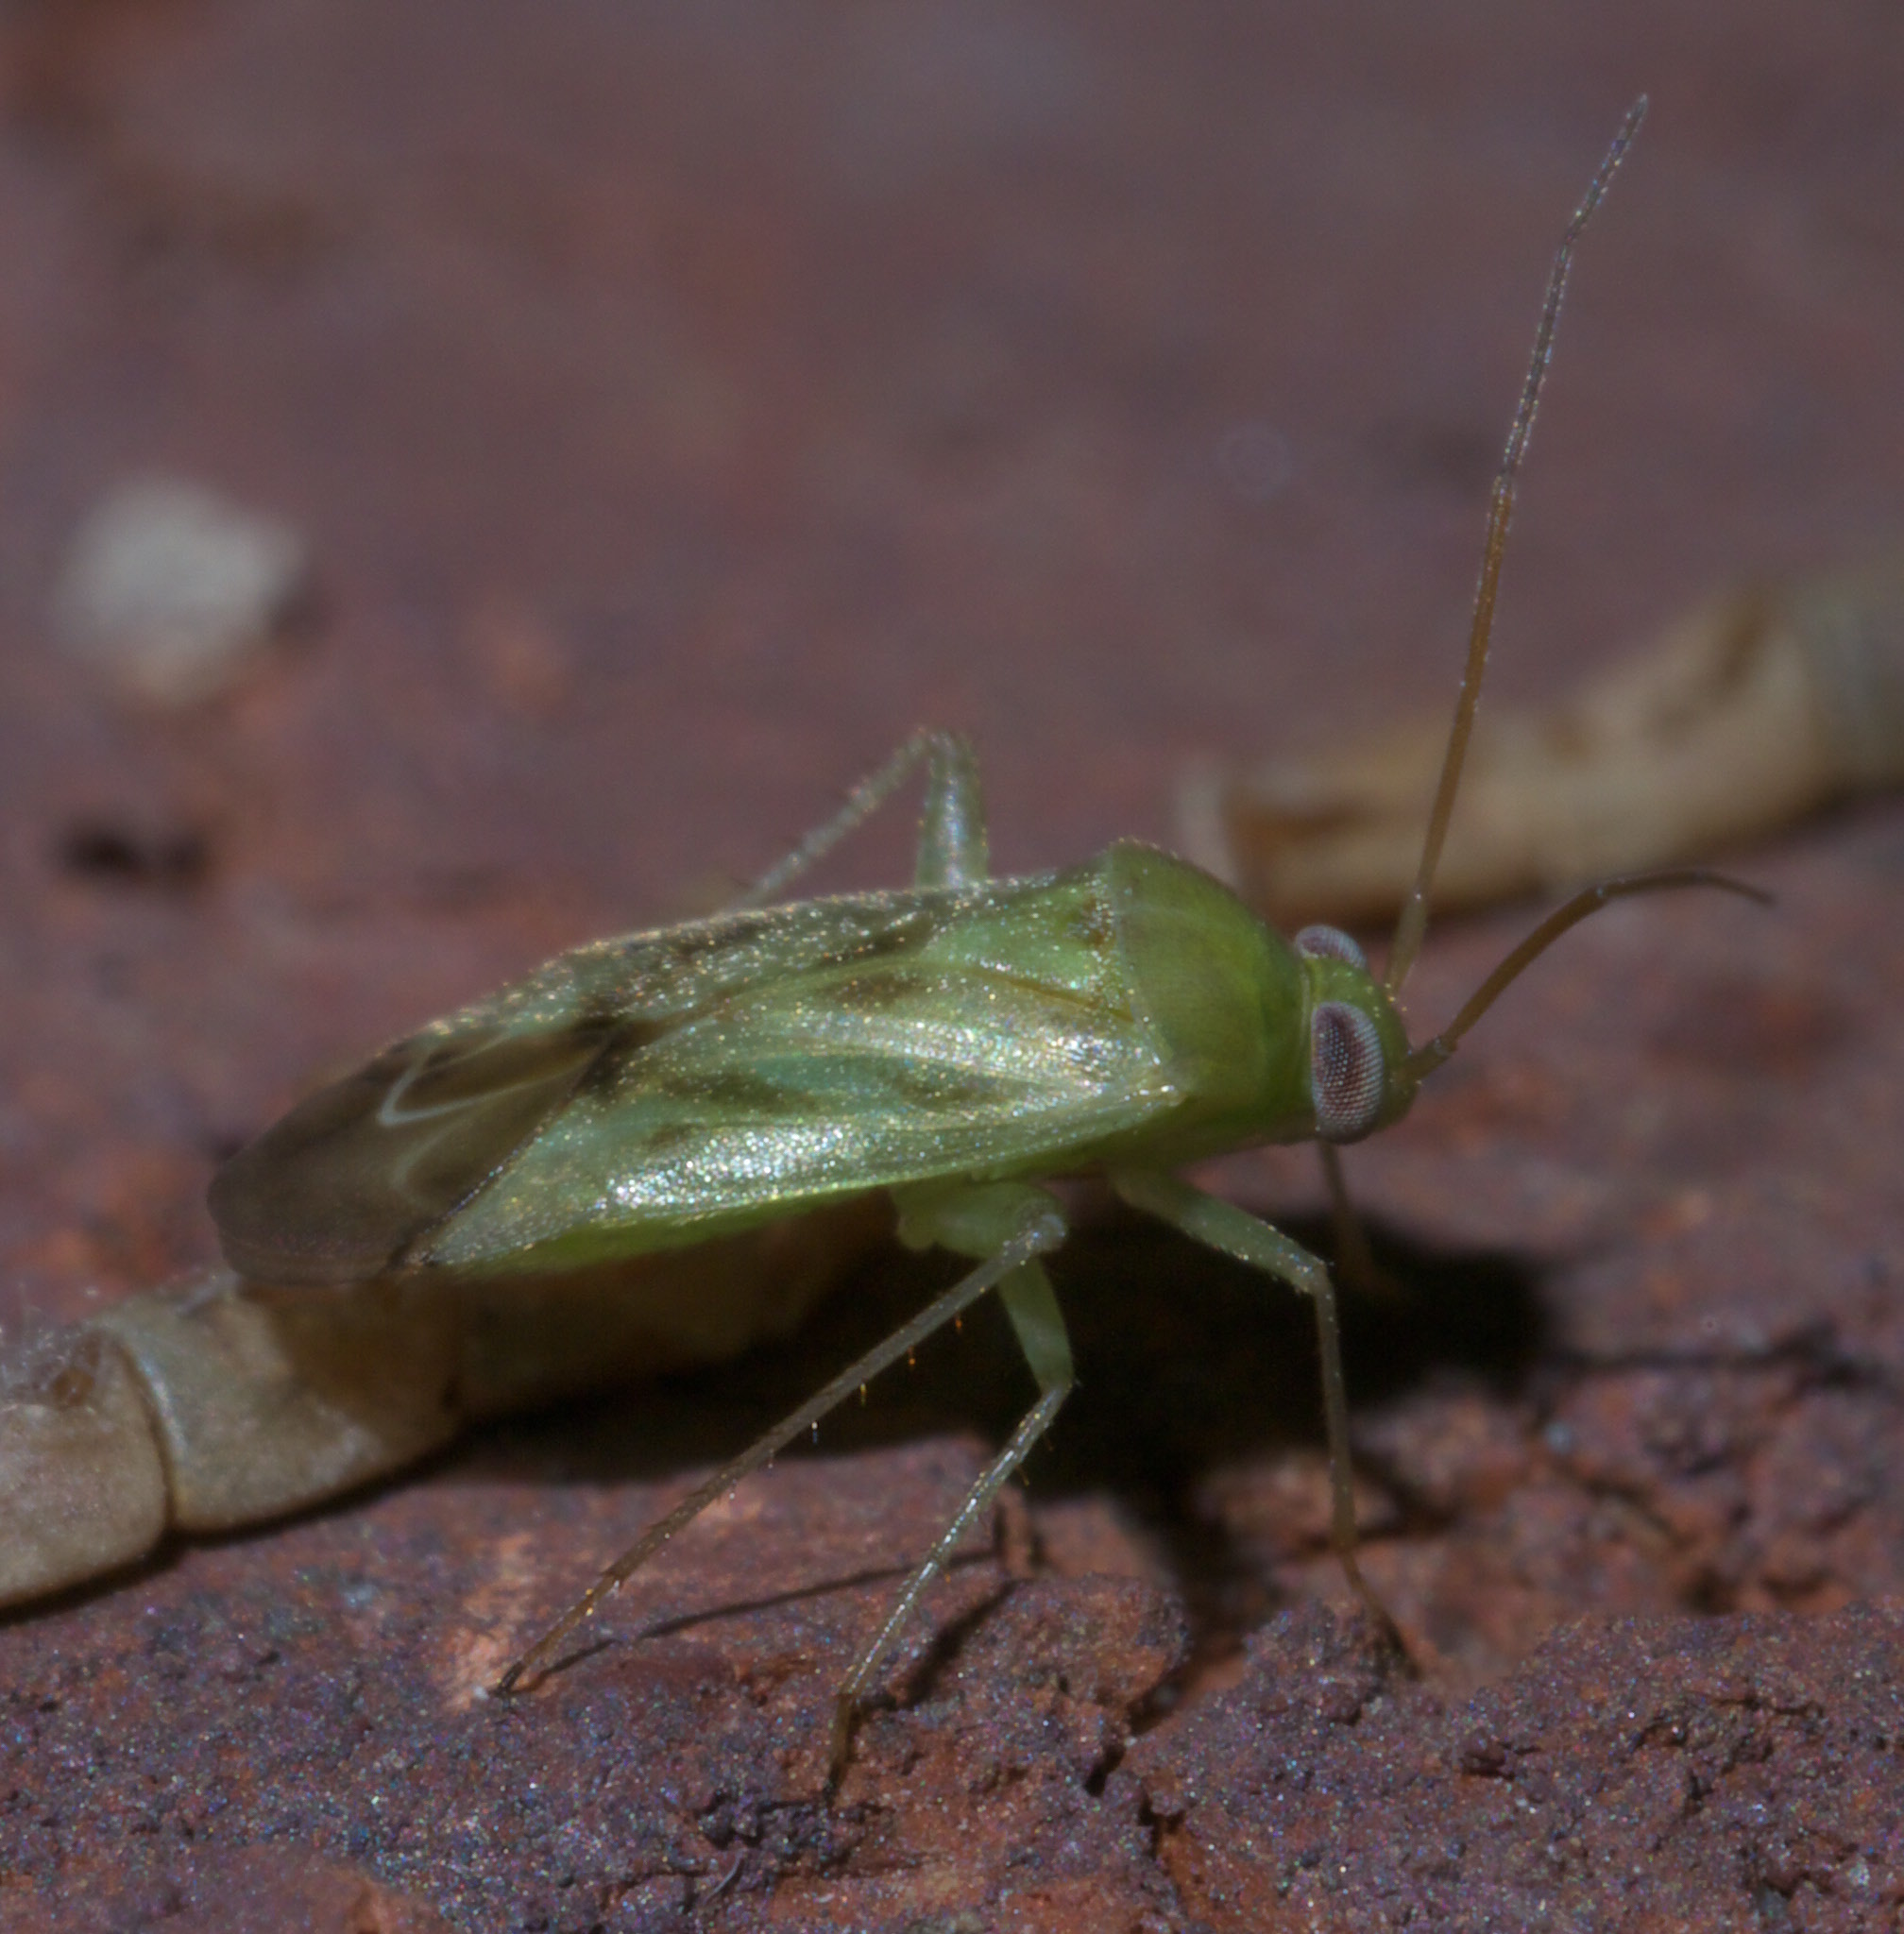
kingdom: Animalia
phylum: Arthropoda
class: Insecta
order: Hemiptera
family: Miridae
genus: Taylorilygus
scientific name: Taylorilygus apicalis
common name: Plant bug
